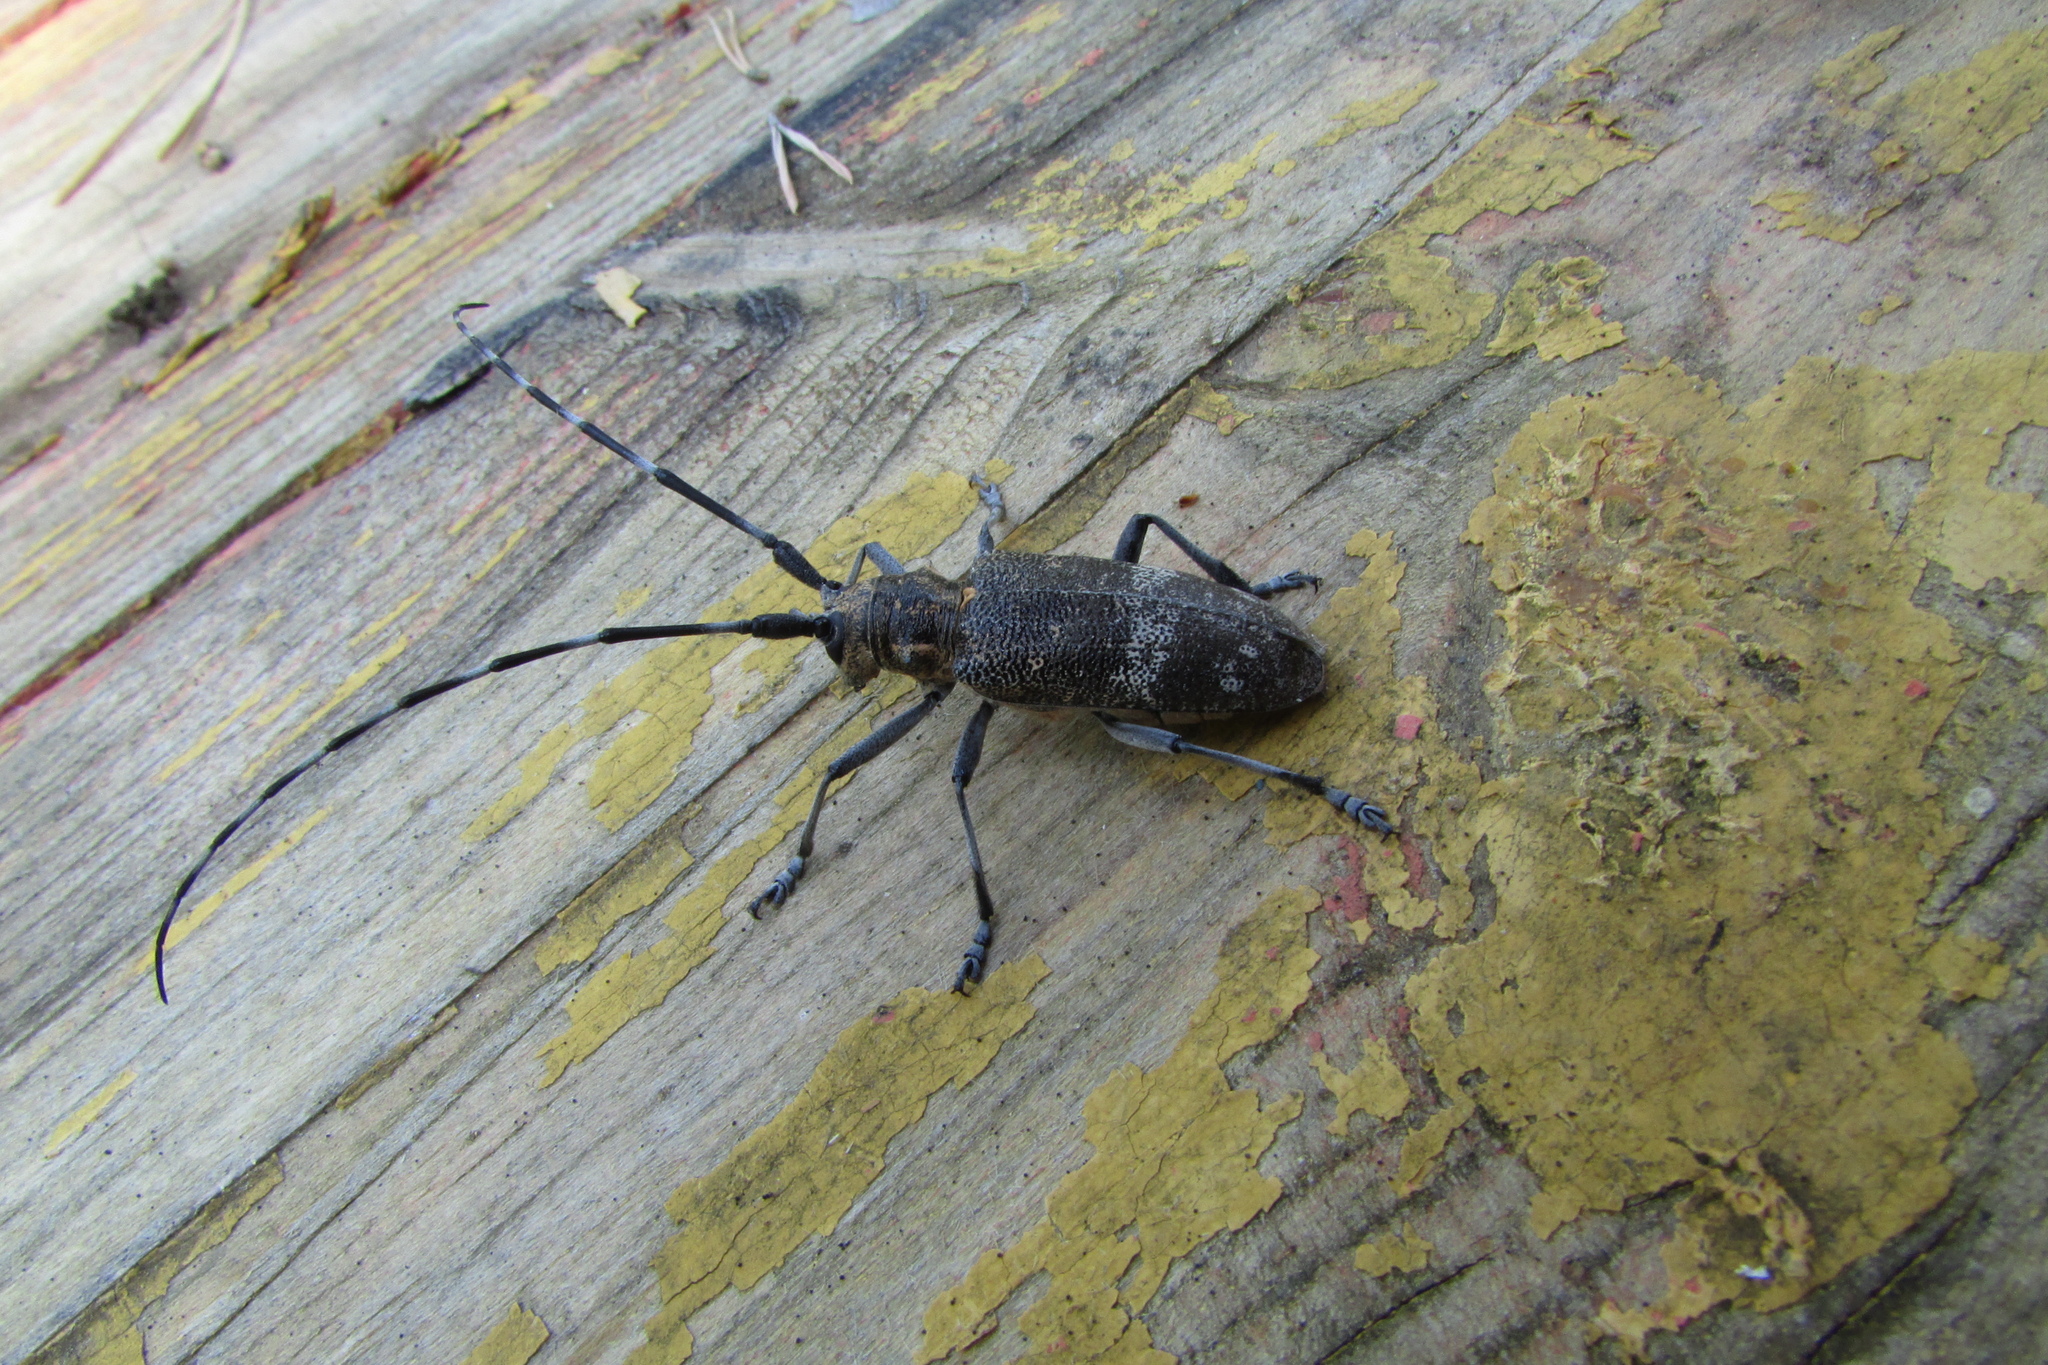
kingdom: Animalia
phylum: Arthropoda
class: Insecta
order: Coleoptera
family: Cerambycidae
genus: Monochamus
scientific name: Monochamus galloprovincialis
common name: Pine sawyer
